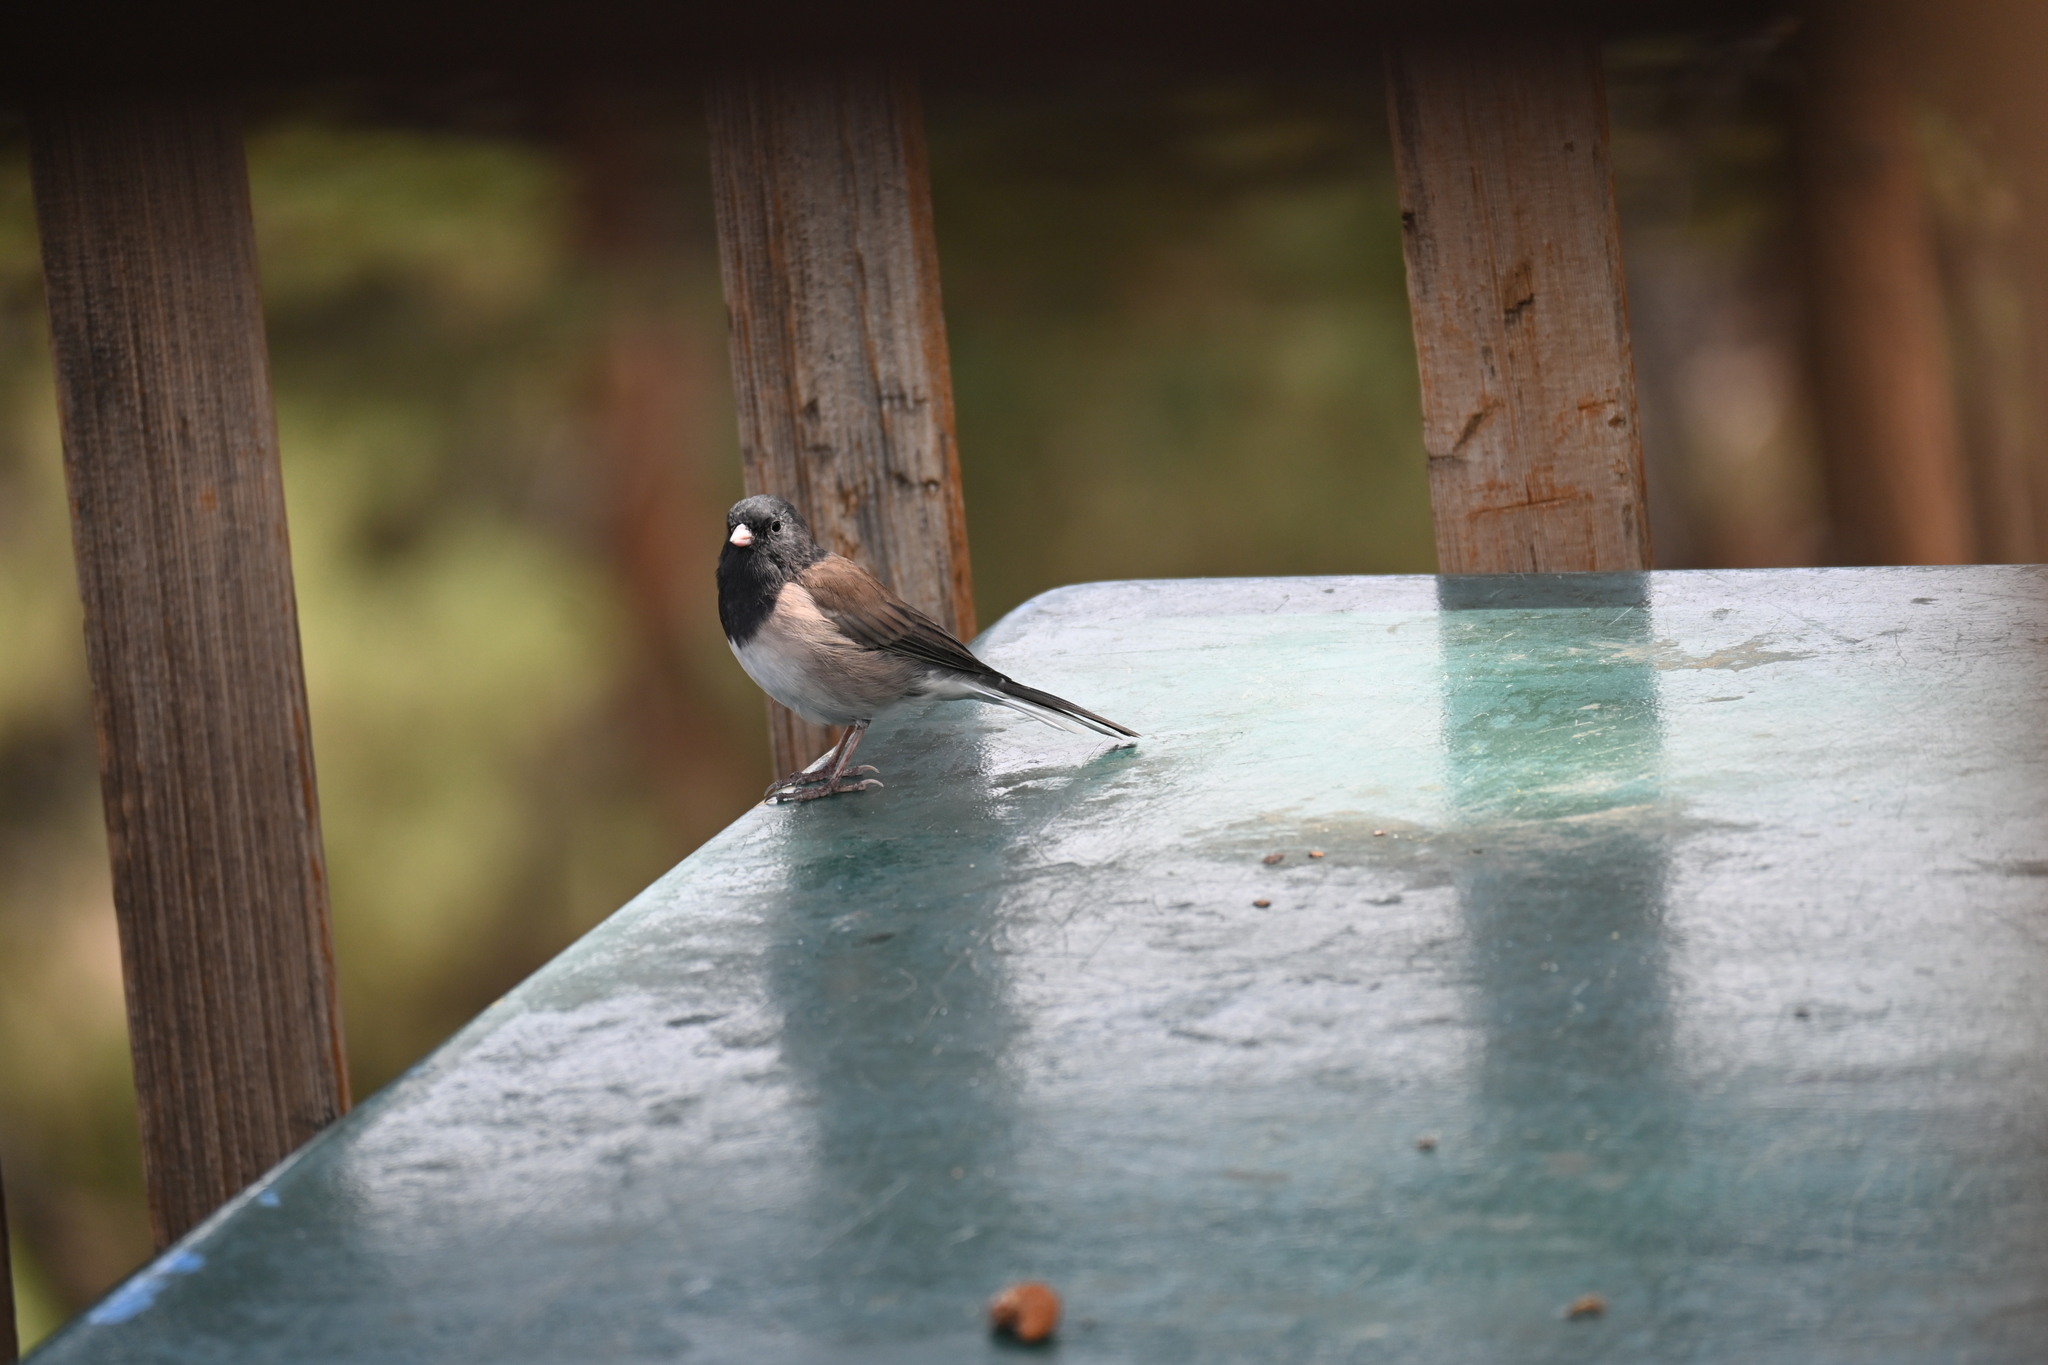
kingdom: Animalia
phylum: Chordata
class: Aves
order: Passeriformes
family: Passerellidae
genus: Junco
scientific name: Junco hyemalis
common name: Dark-eyed junco
